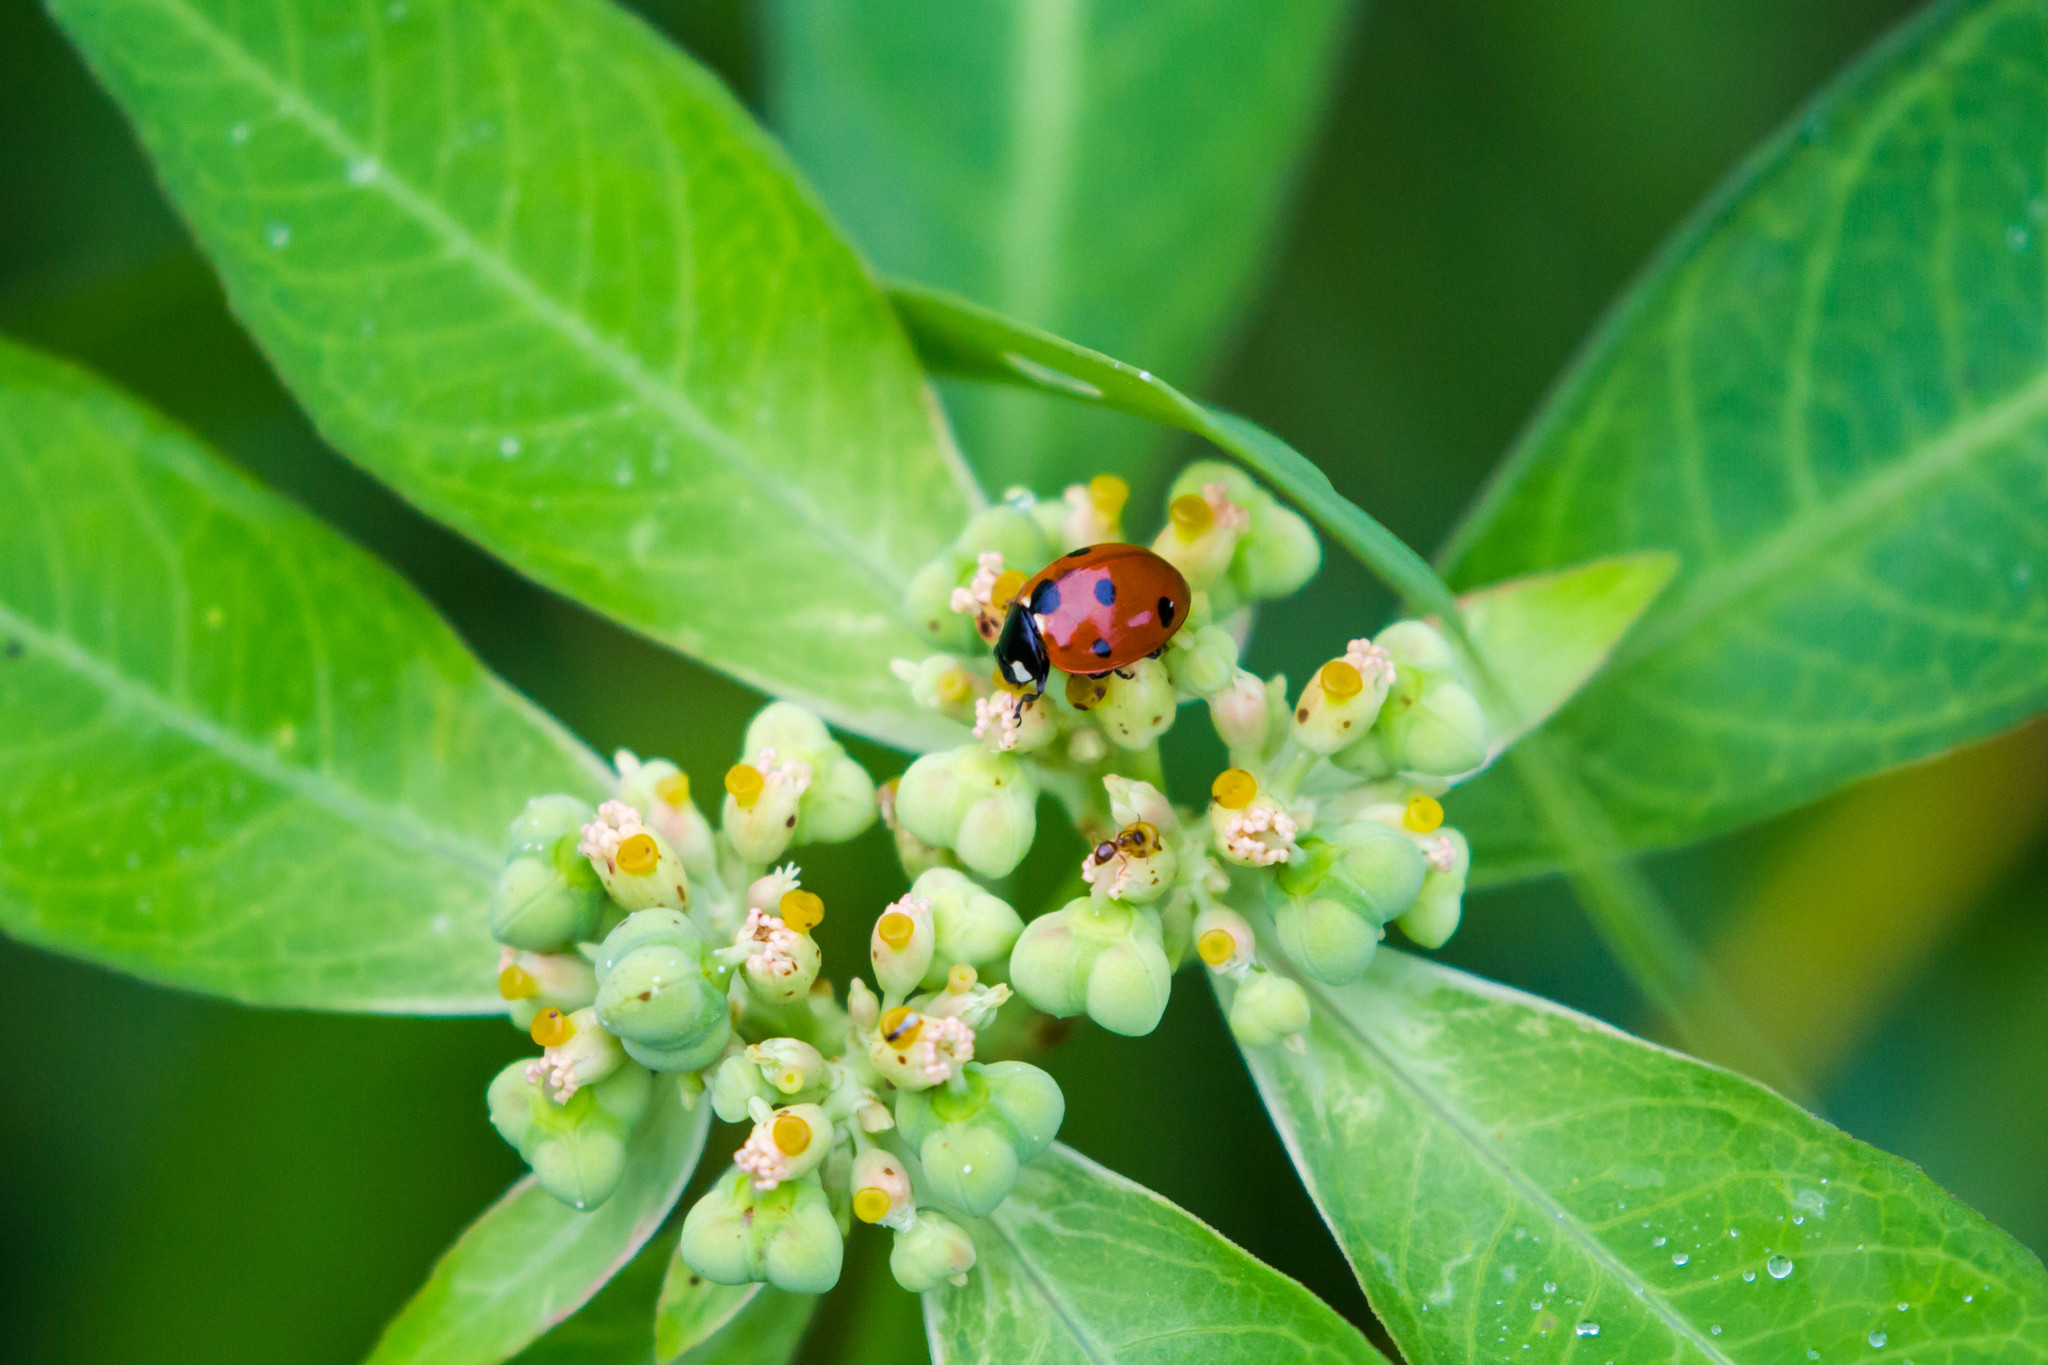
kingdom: Animalia
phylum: Arthropoda
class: Insecta
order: Coleoptera
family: Coccinellidae
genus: Coccinella
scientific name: Coccinella septempunctata
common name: Sevenspotted lady beetle
